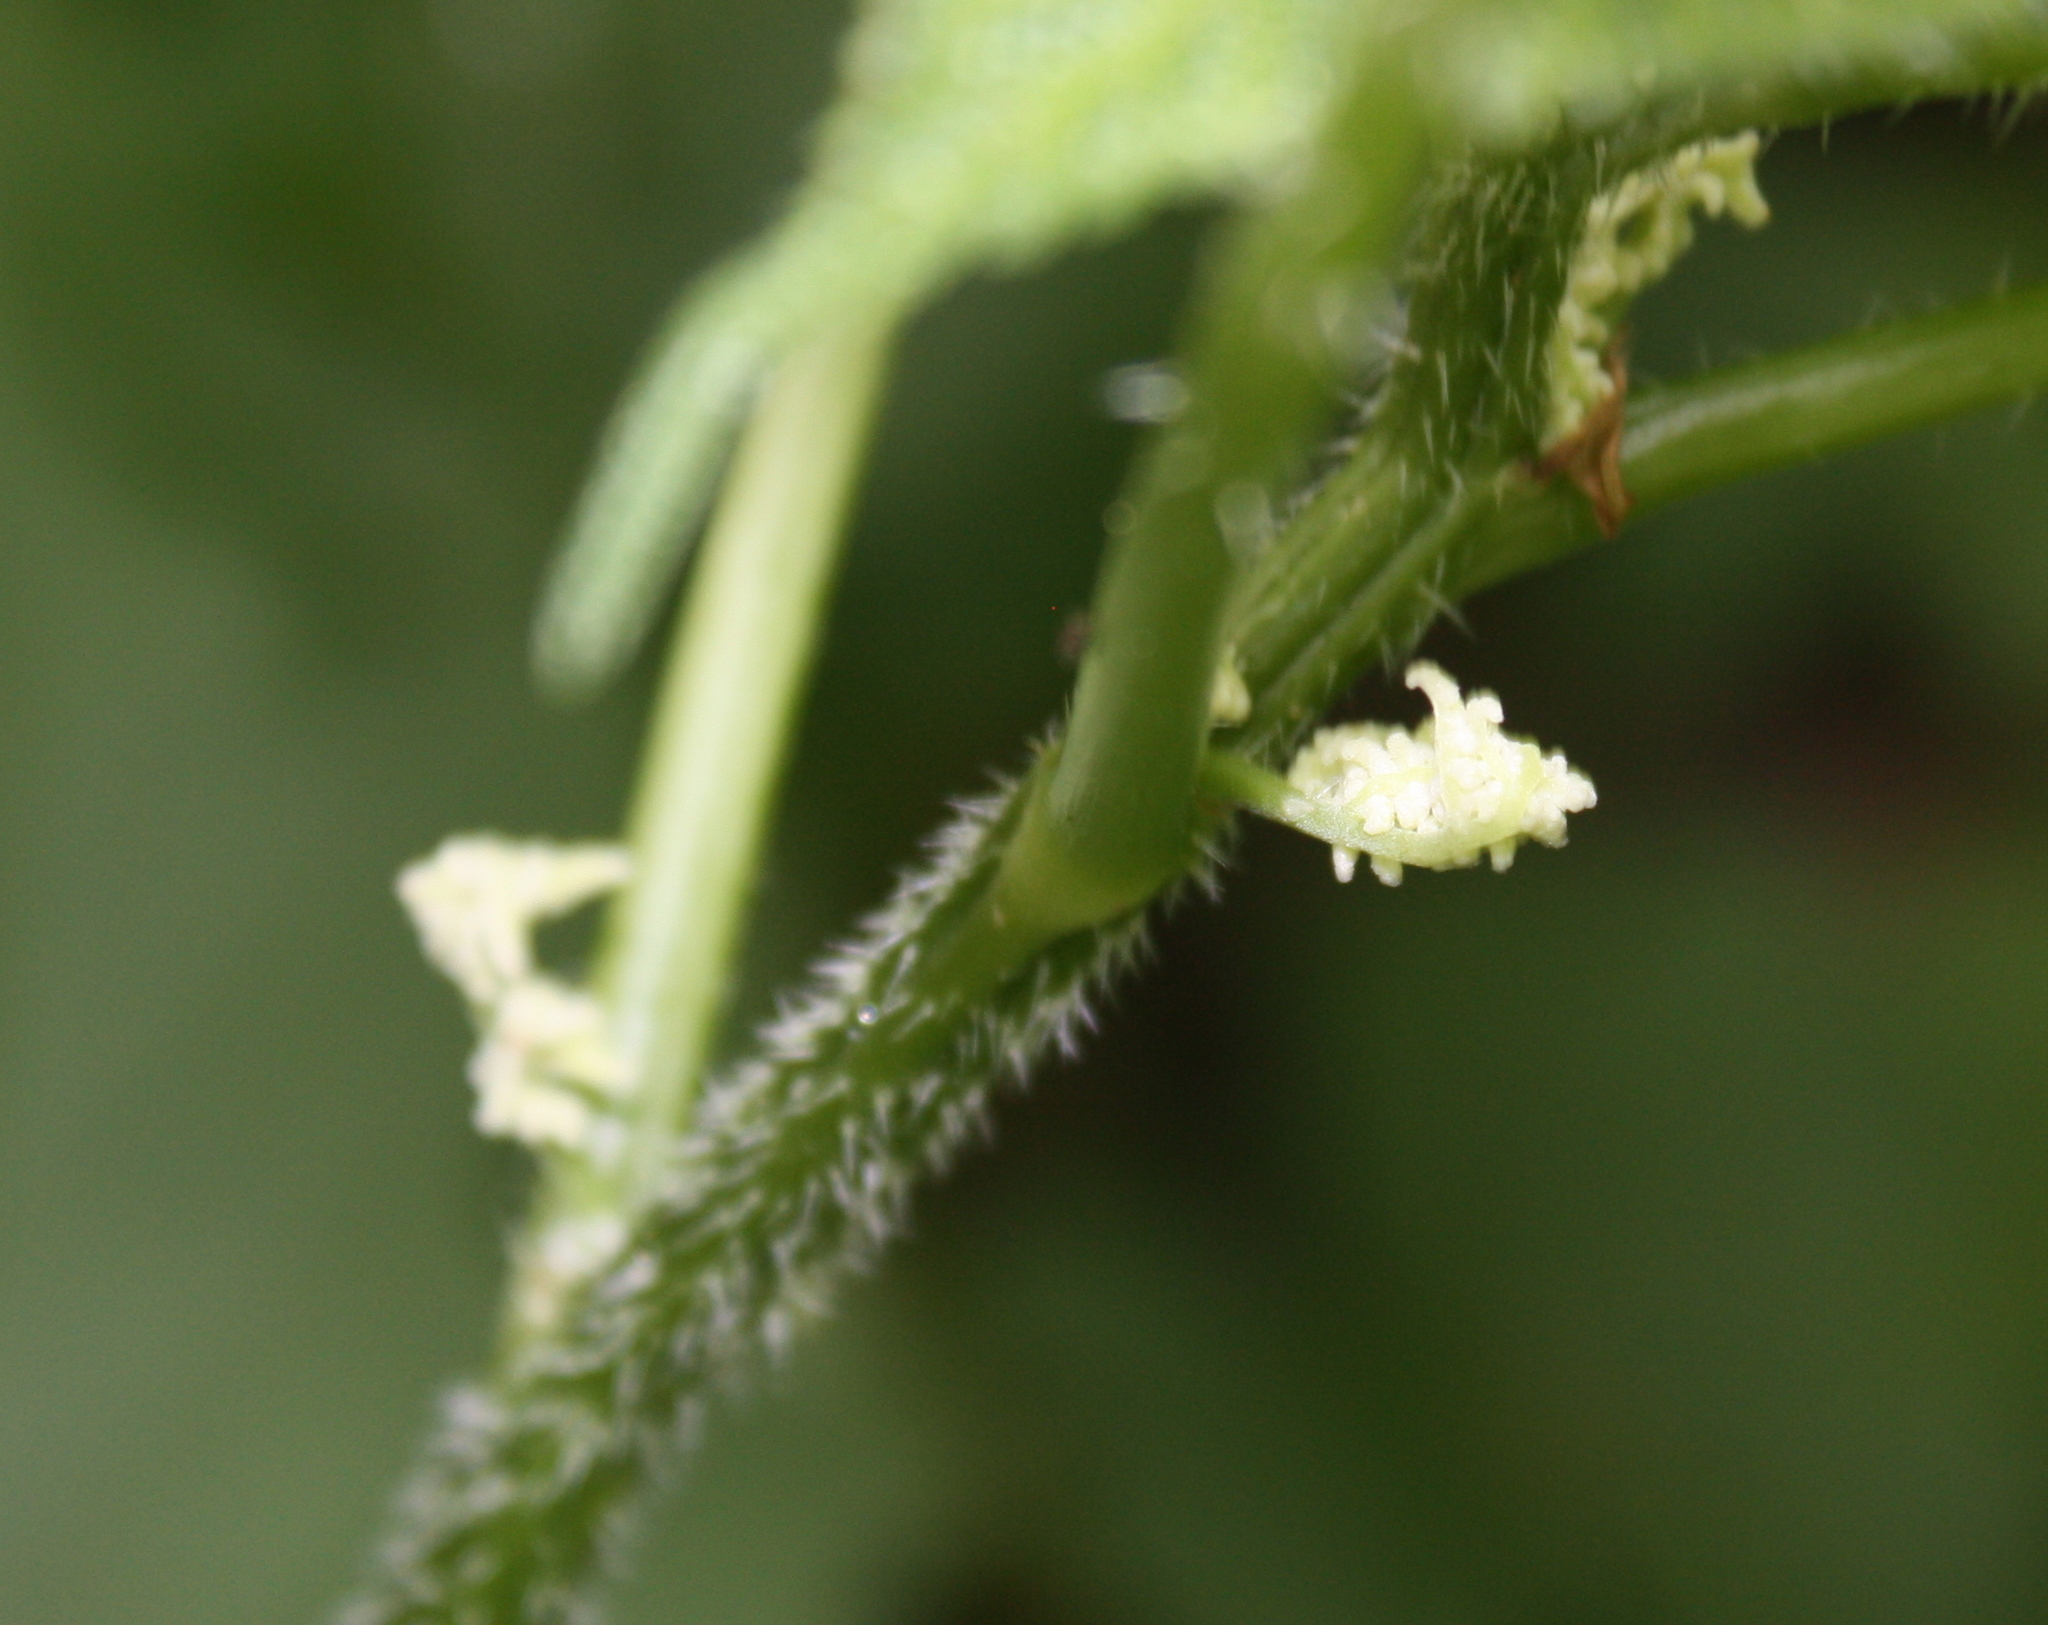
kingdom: Plantae
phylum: Tracheophyta
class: Magnoliopsida
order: Rosales
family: Urticaceae
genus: Laportea
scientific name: Laportea canadensis
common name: Canada nettle
